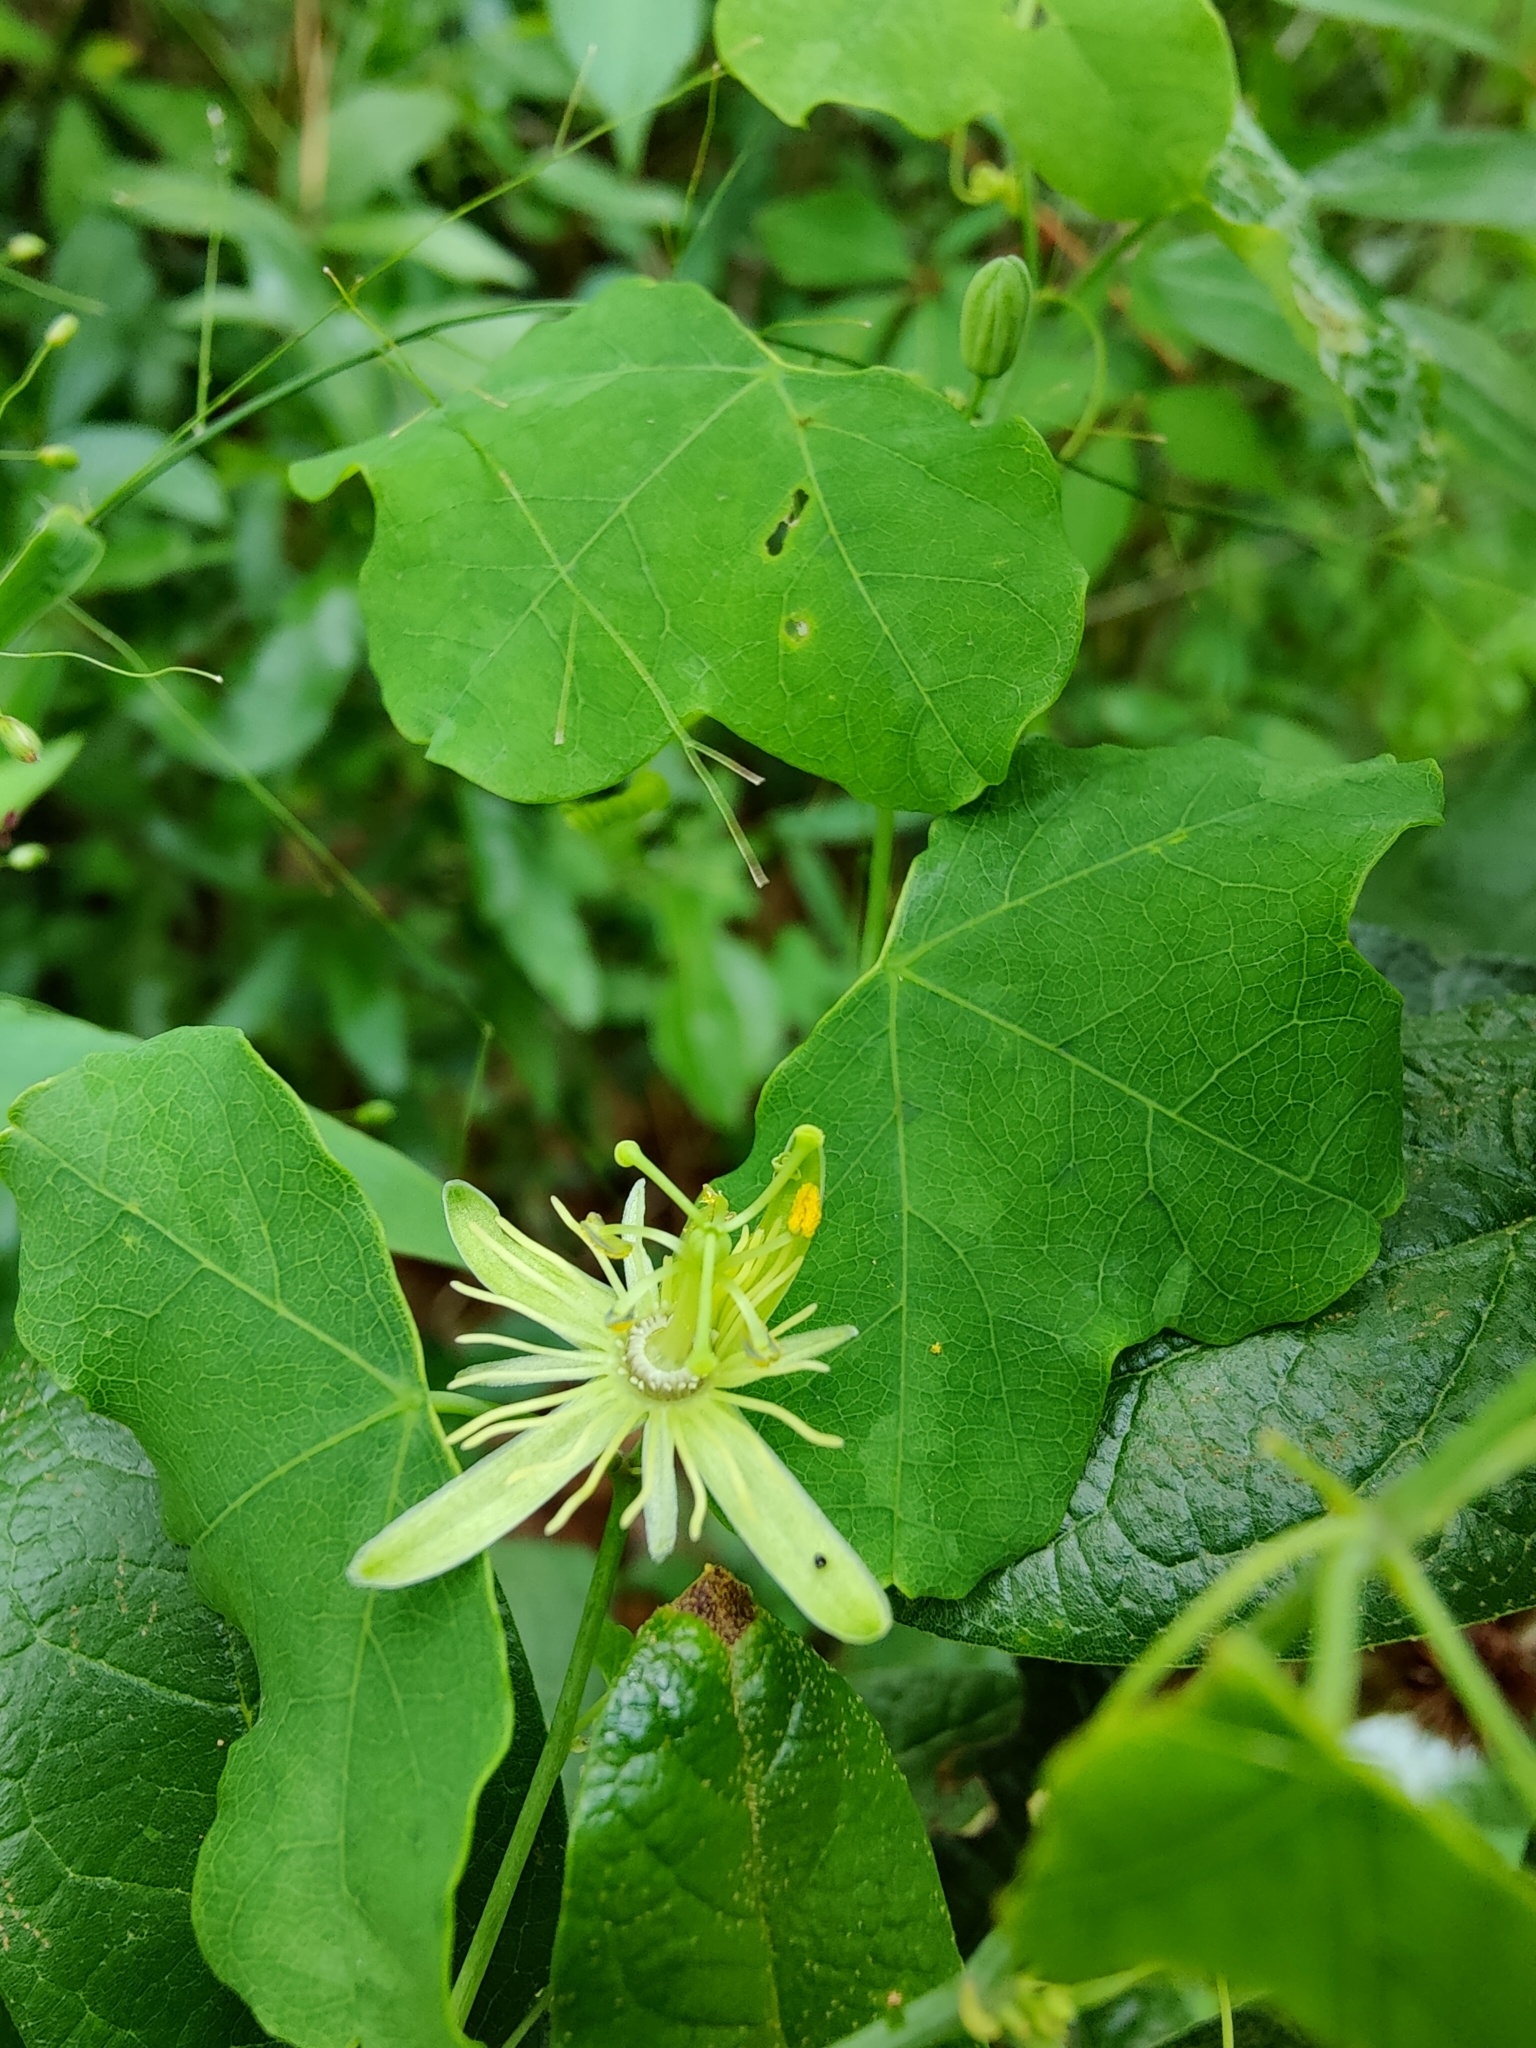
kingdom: Plantae
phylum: Tracheophyta
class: Magnoliopsida
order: Malpighiales
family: Passifloraceae
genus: Passiflora
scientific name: Passiflora lutea
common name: Yellow passionflower
